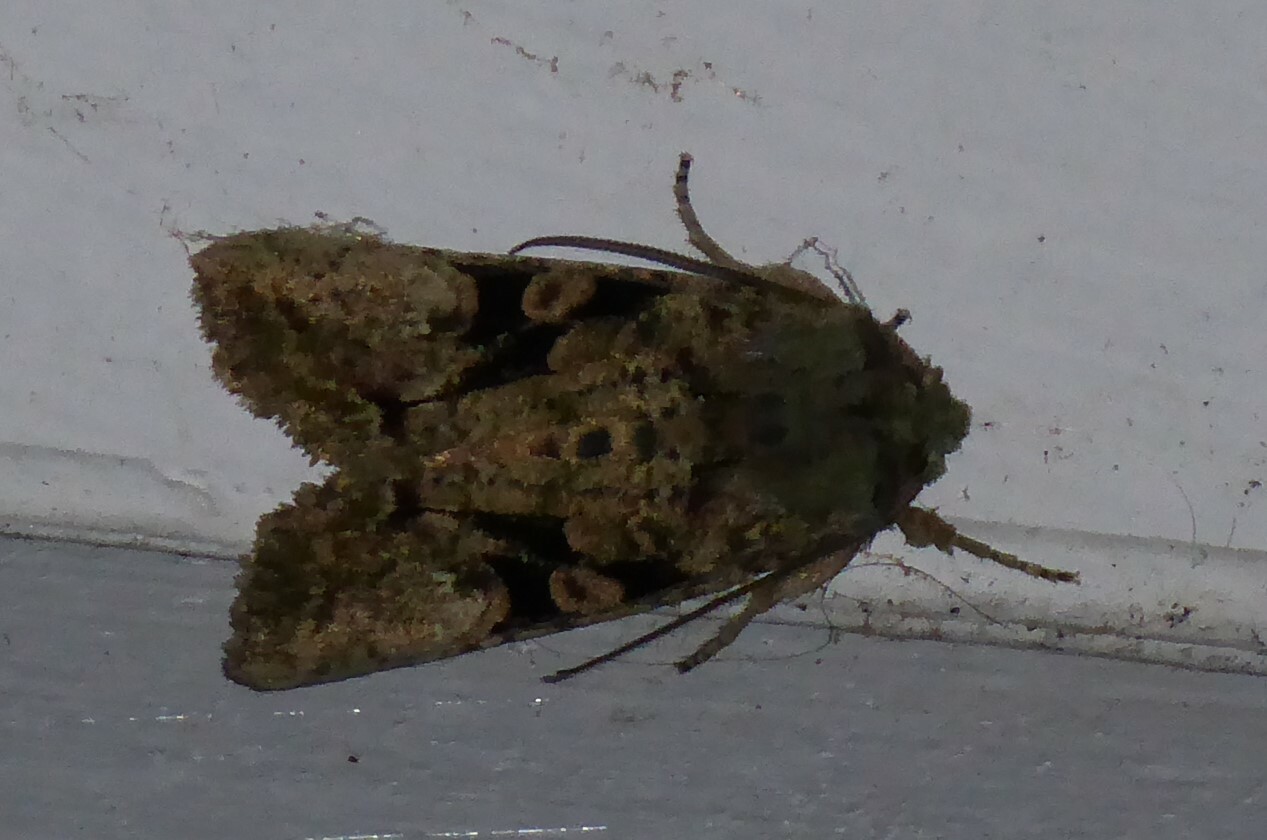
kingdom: Animalia
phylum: Arthropoda
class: Insecta
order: Lepidoptera
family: Noctuidae
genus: Meterana
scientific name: Meterana levis
